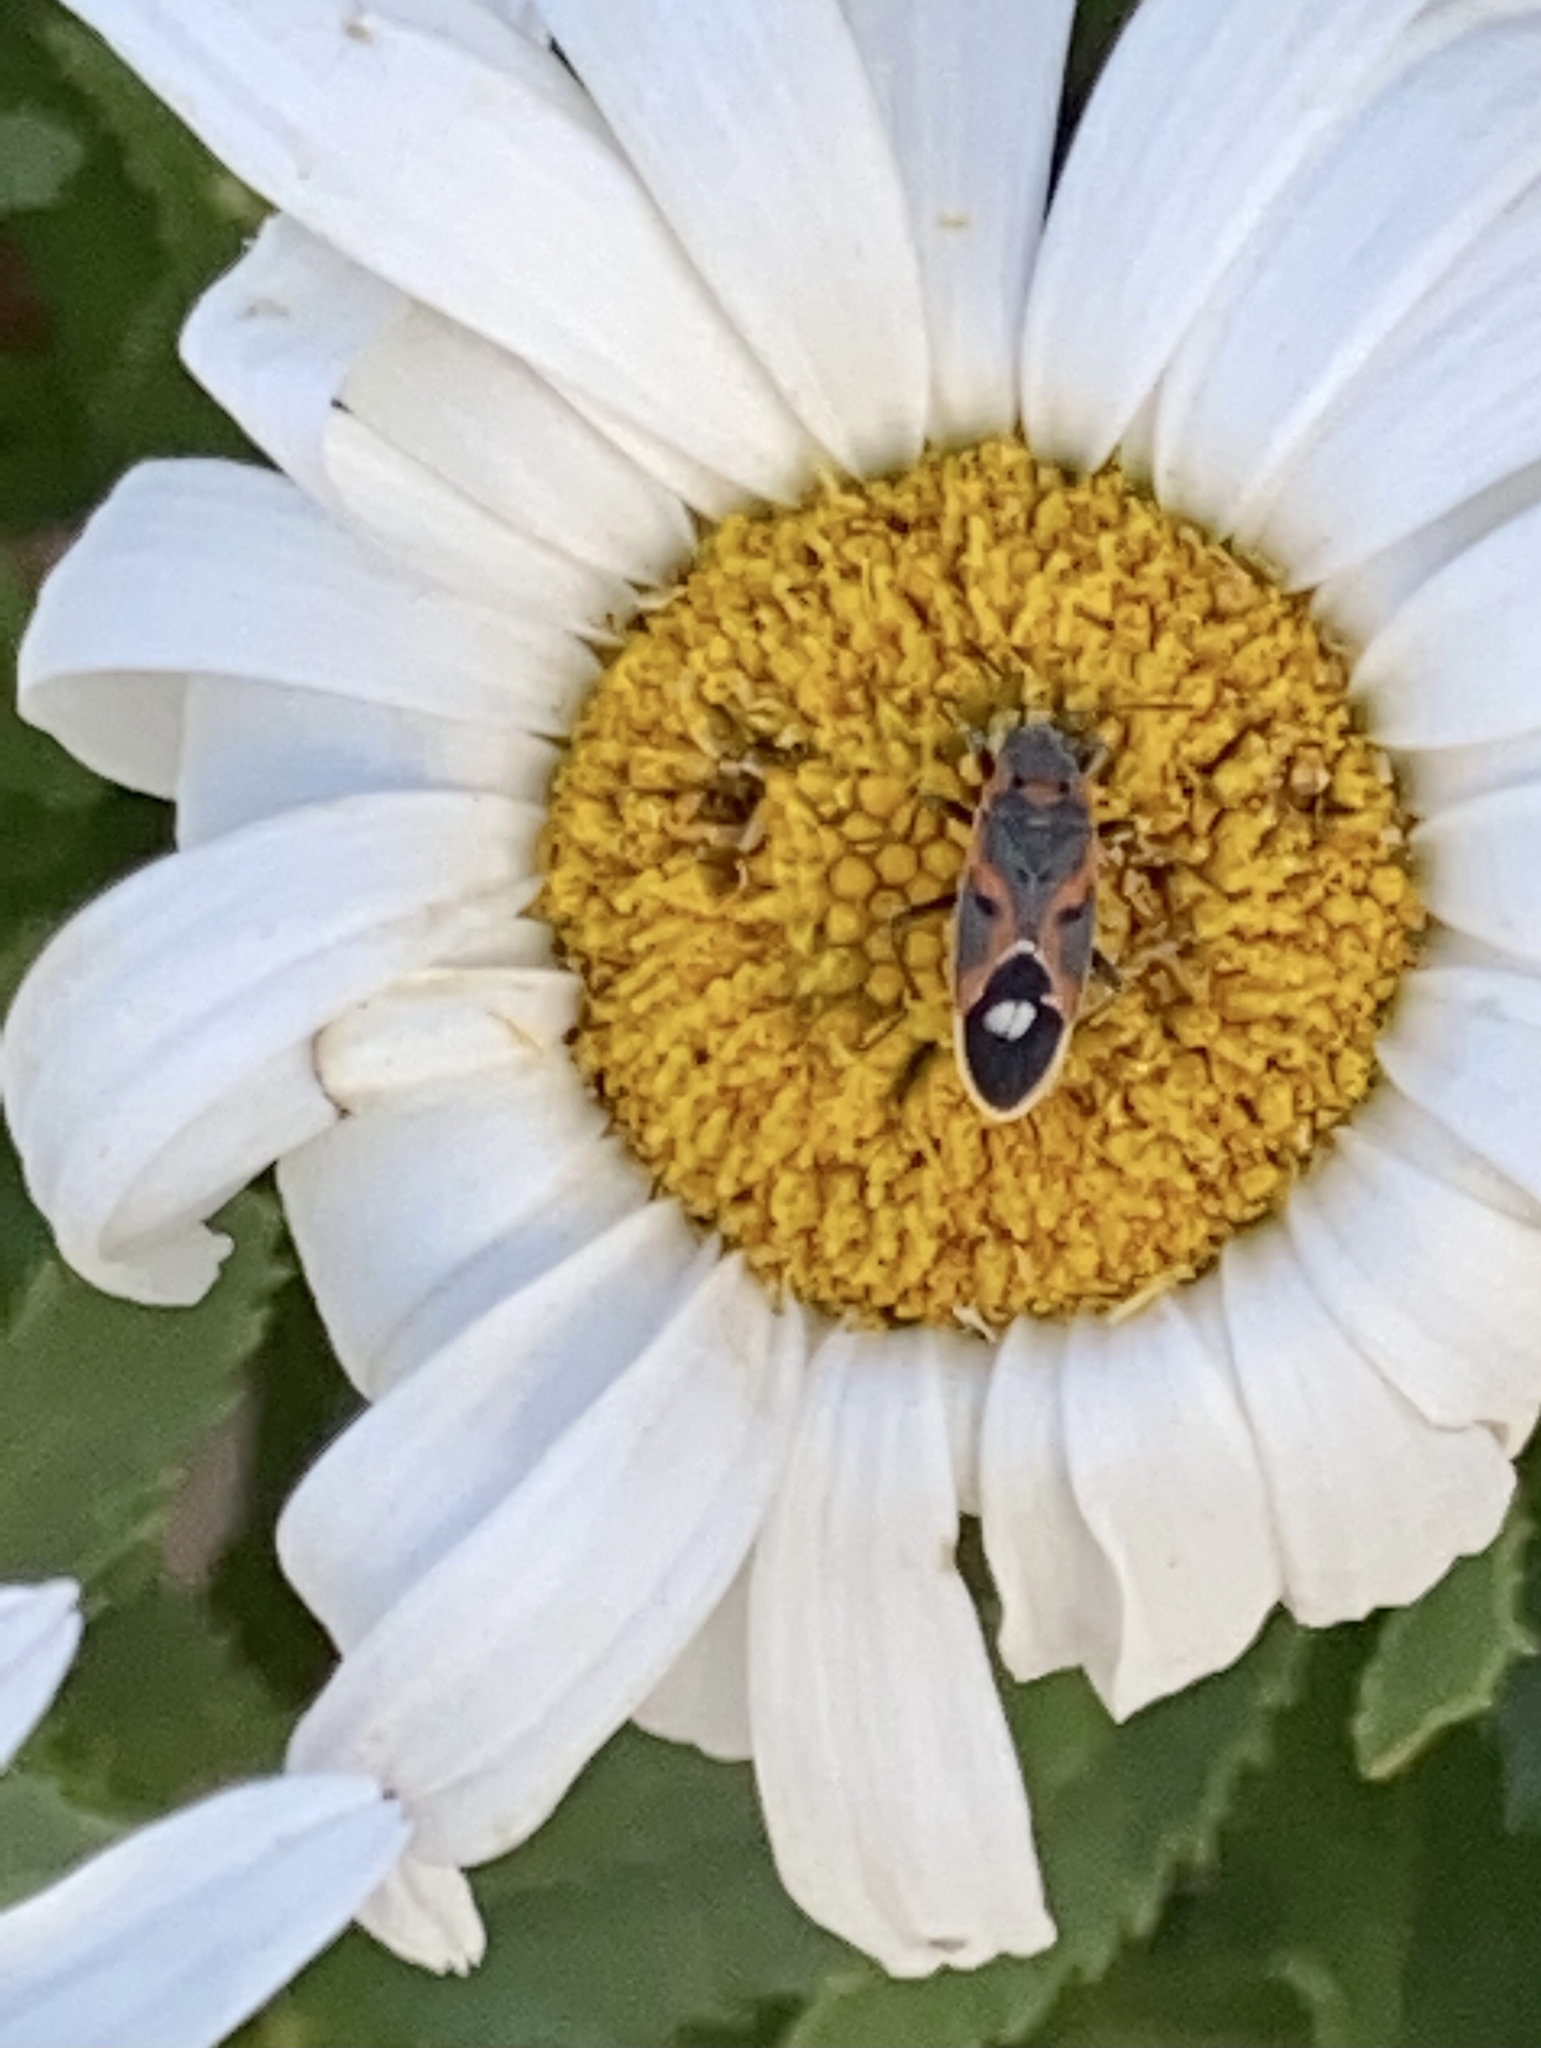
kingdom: Animalia
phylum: Arthropoda
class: Insecta
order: Hemiptera
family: Lygaeidae
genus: Lygaeus
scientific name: Lygaeus kalmii
